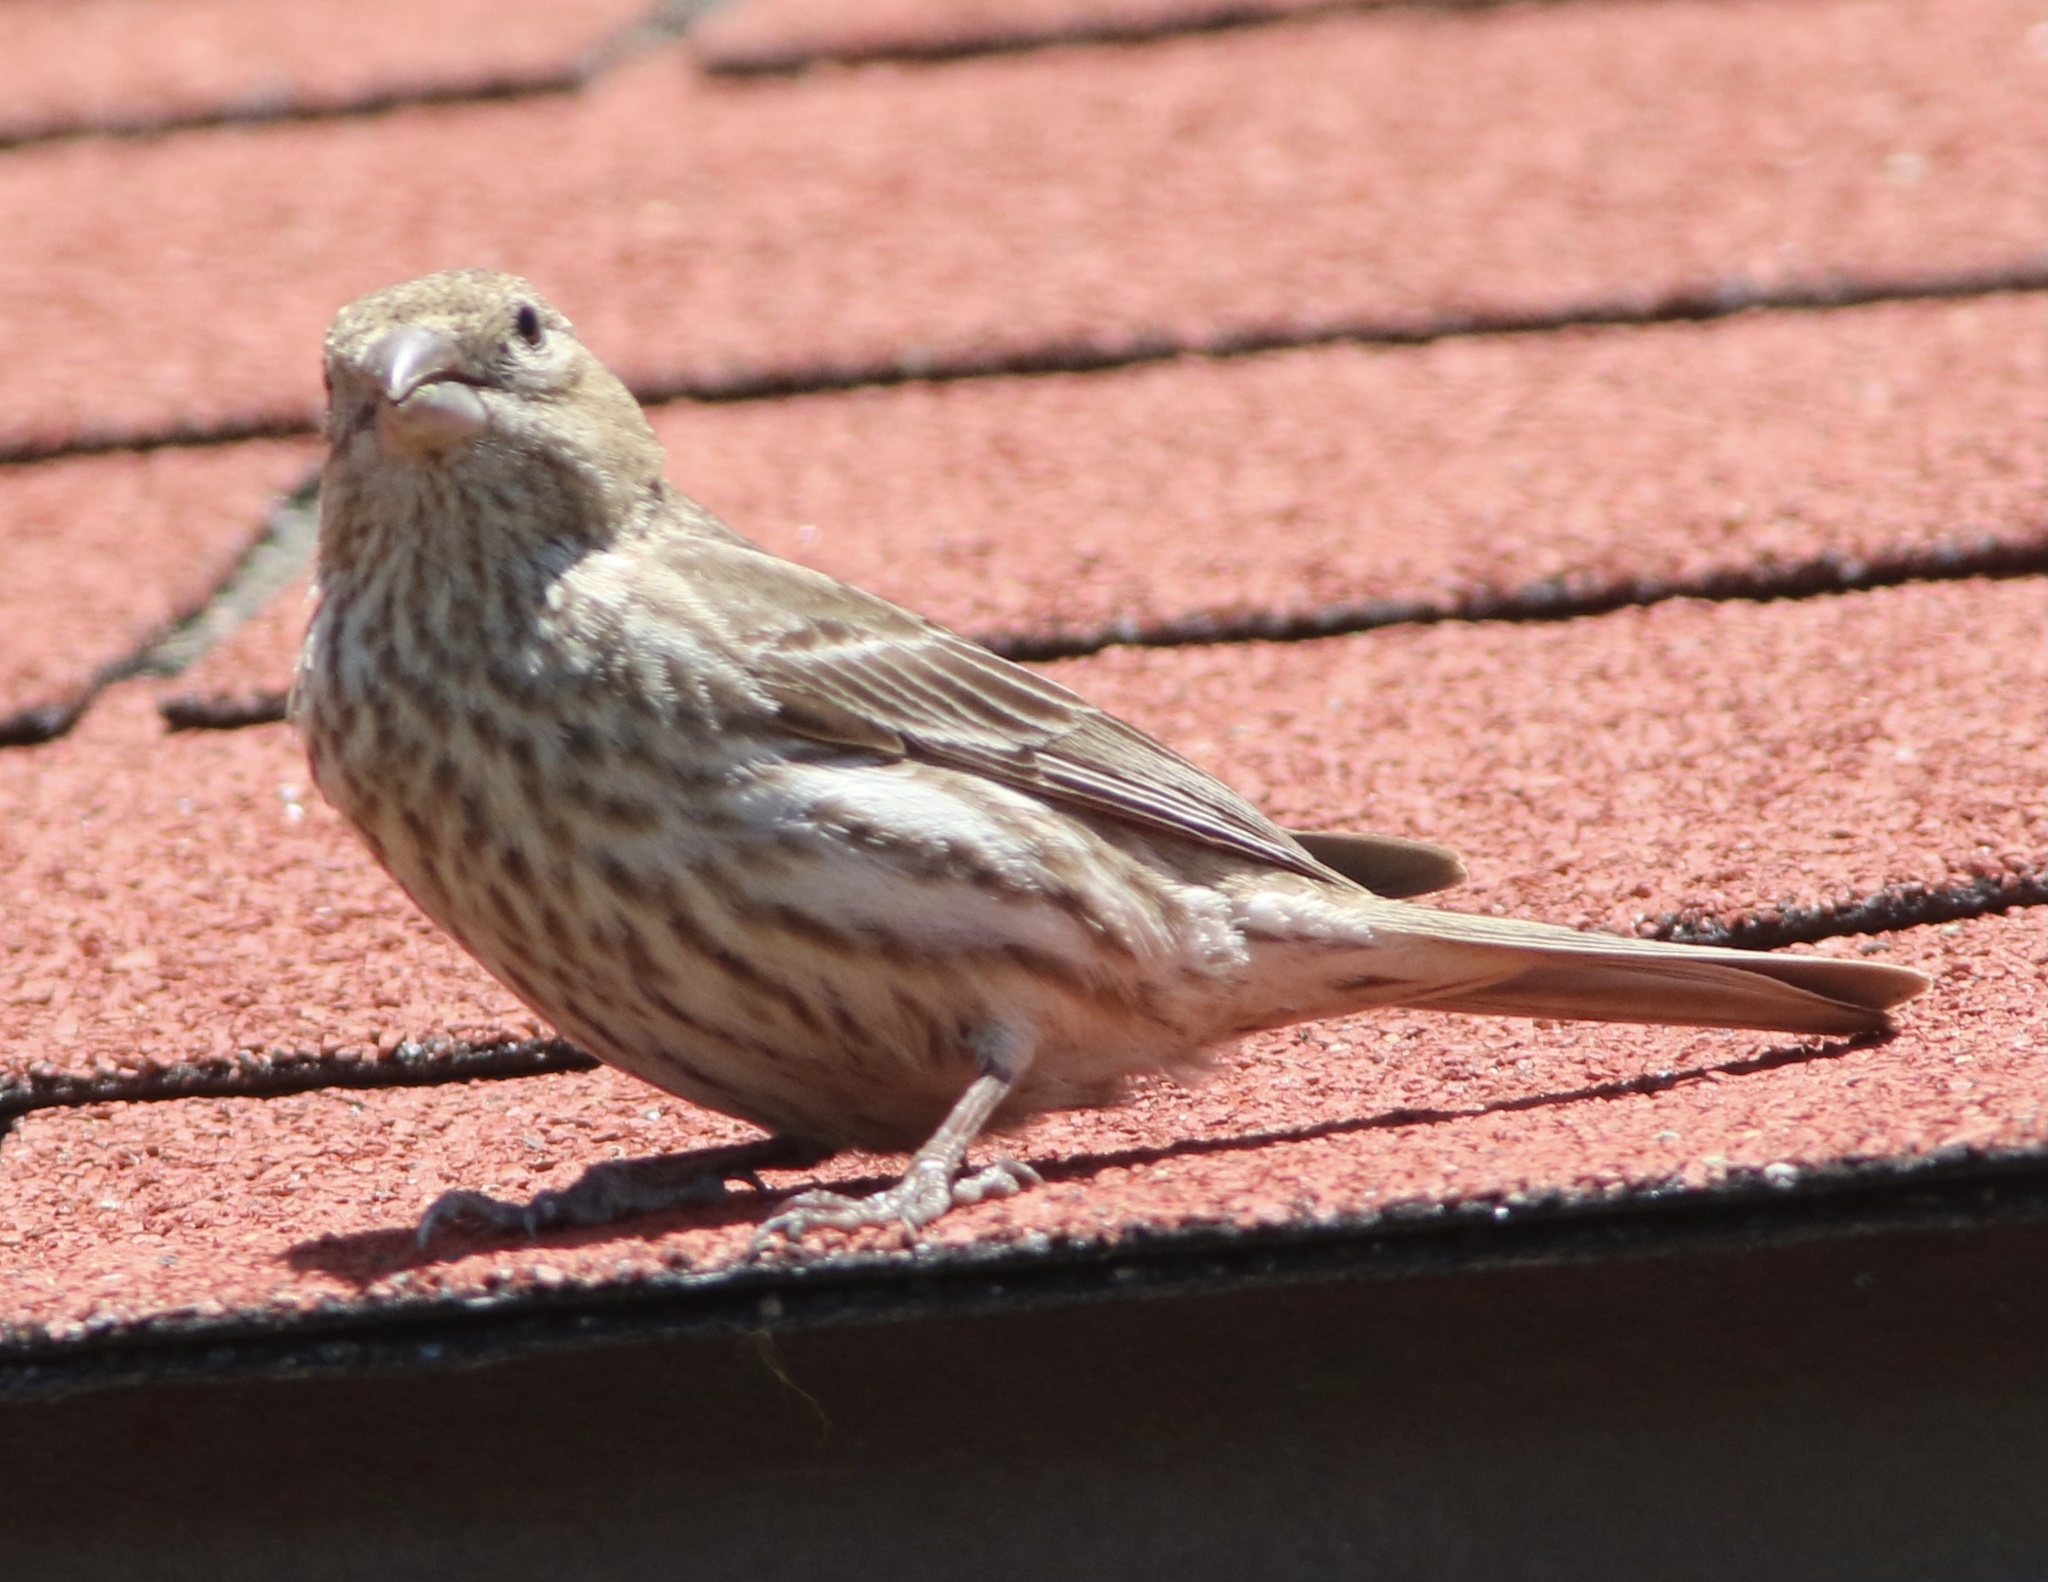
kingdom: Animalia
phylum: Chordata
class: Aves
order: Passeriformes
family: Fringillidae
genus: Haemorhous
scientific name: Haemorhous mexicanus
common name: House finch
